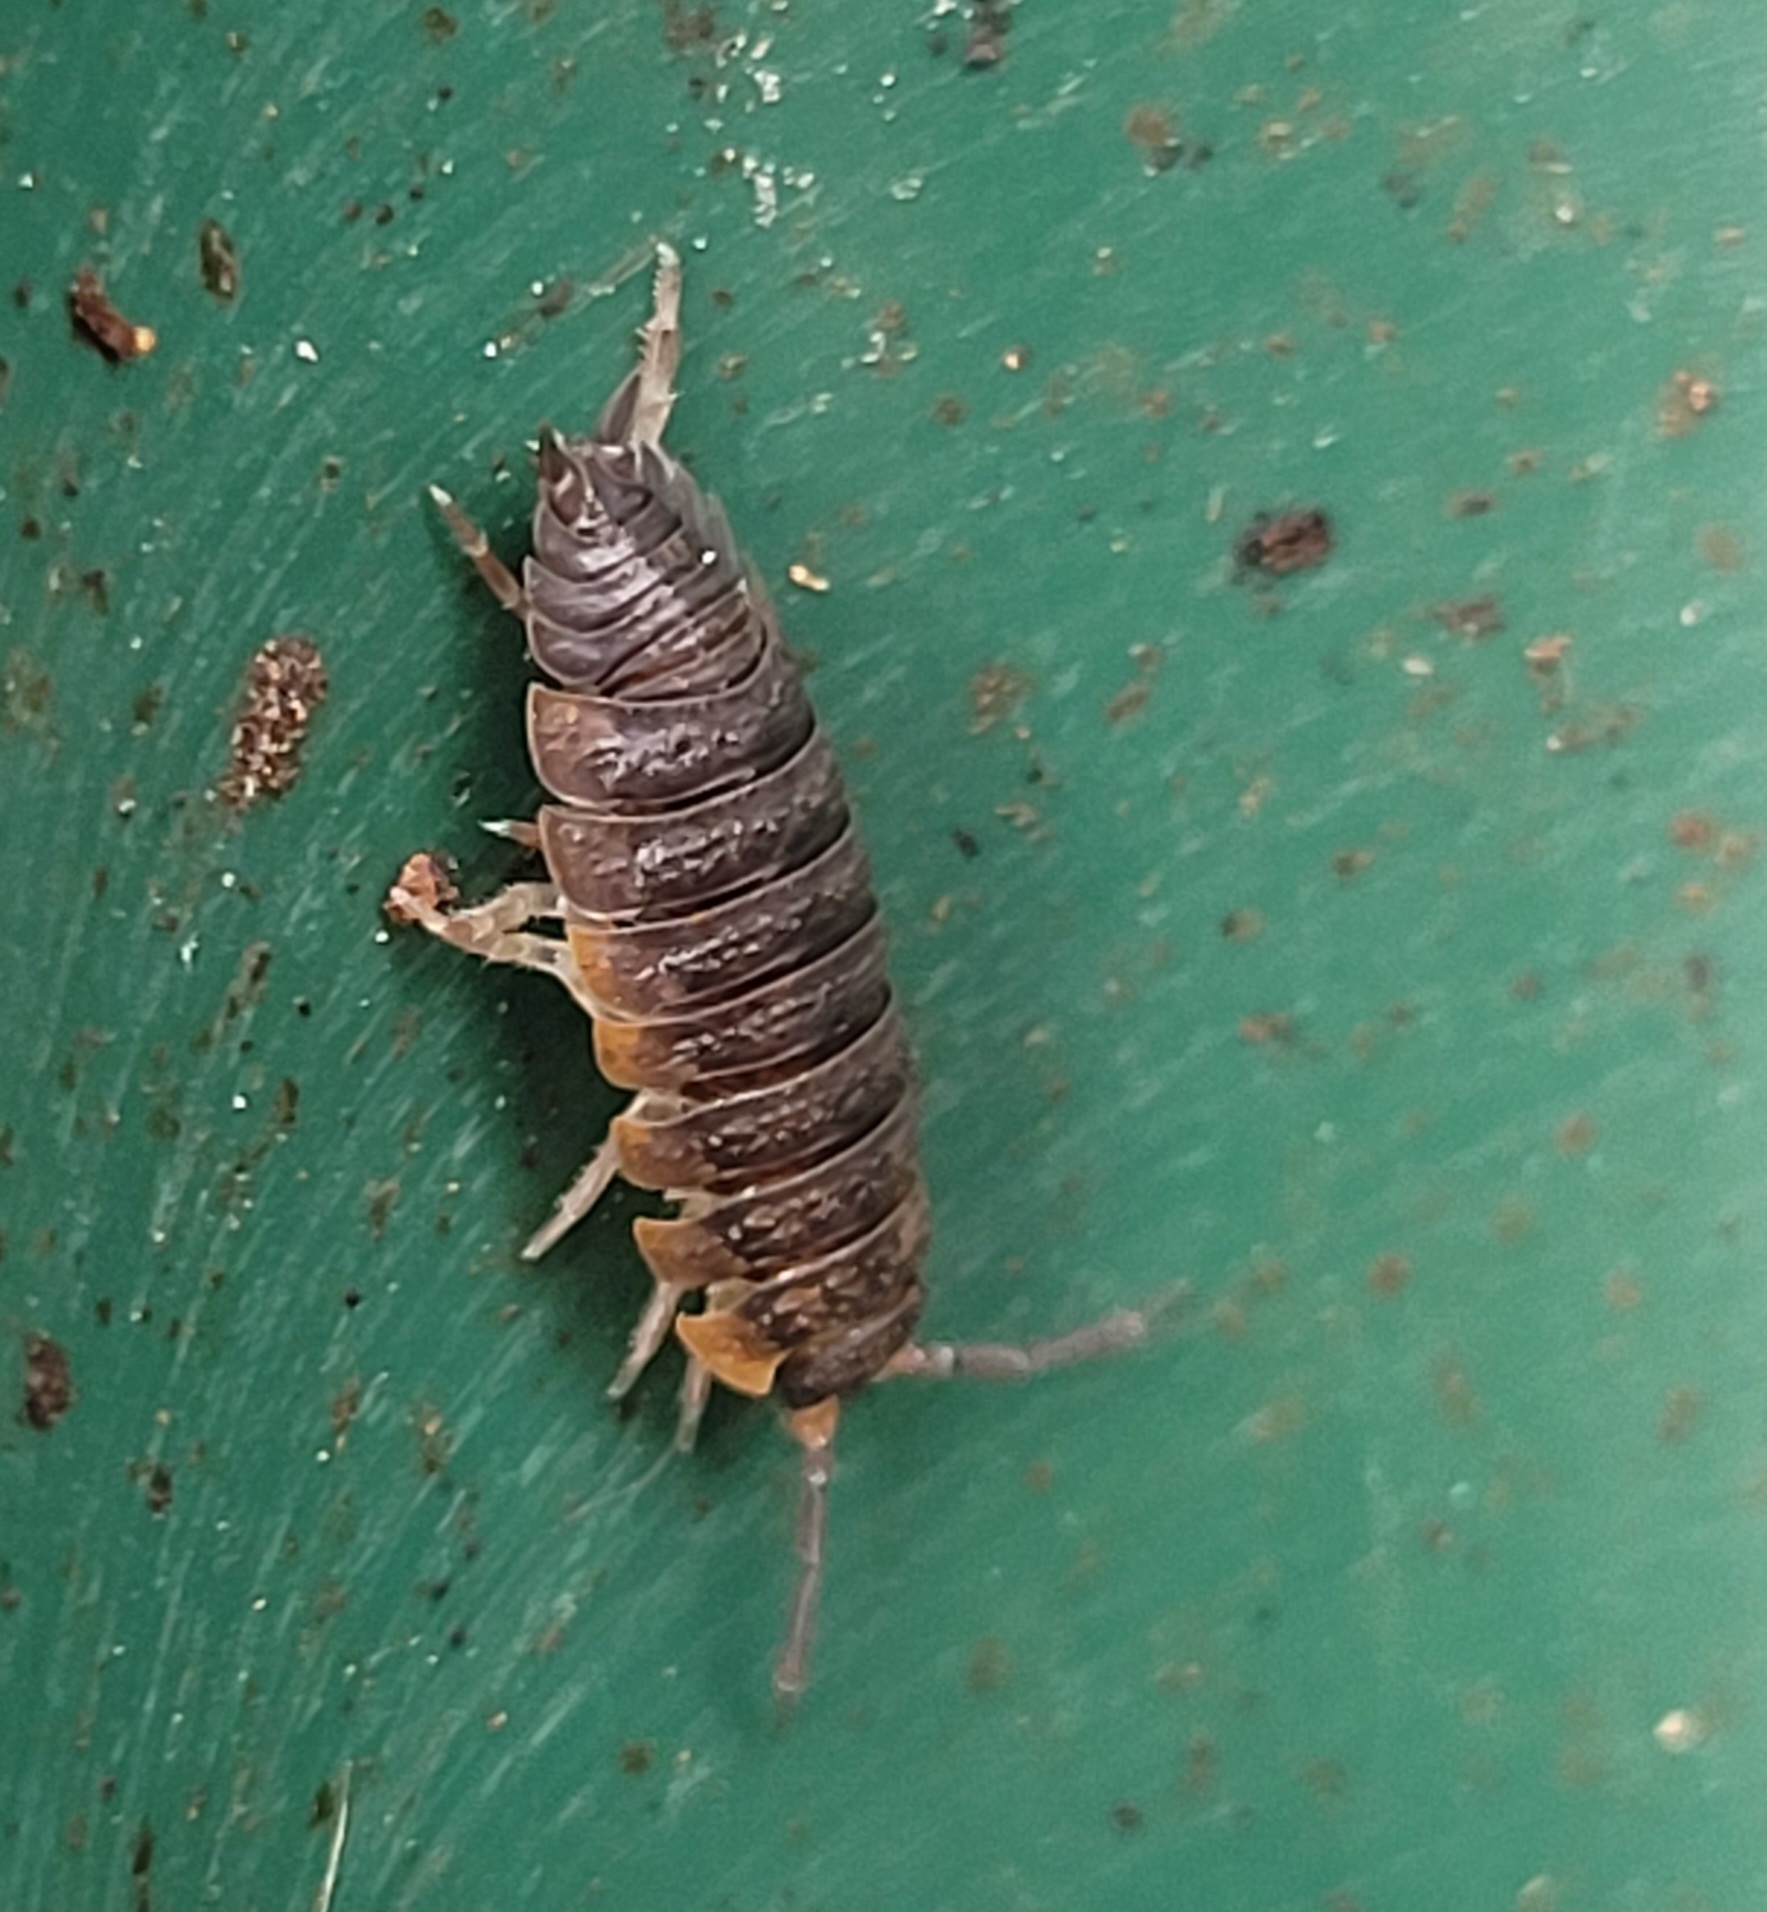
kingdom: Animalia
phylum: Arthropoda
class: Malacostraca
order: Isopoda
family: Porcellionidae
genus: Porcellio
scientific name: Porcellio scaber
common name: Common rough woodlouse
